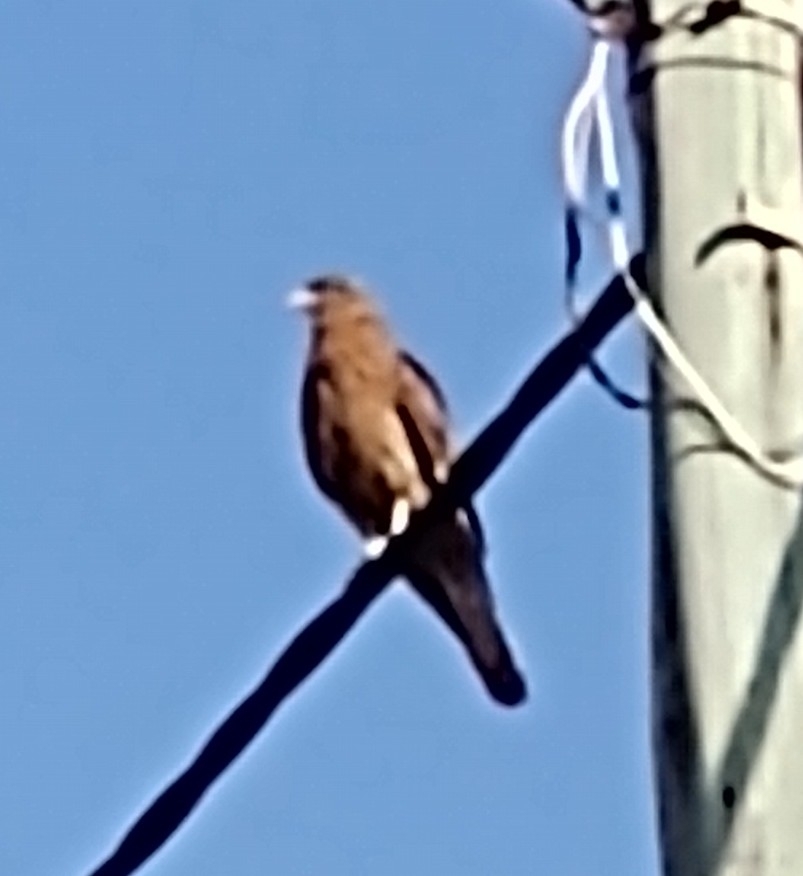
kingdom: Animalia
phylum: Chordata
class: Aves
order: Falconiformes
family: Falconidae
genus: Daptrius
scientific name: Daptrius
